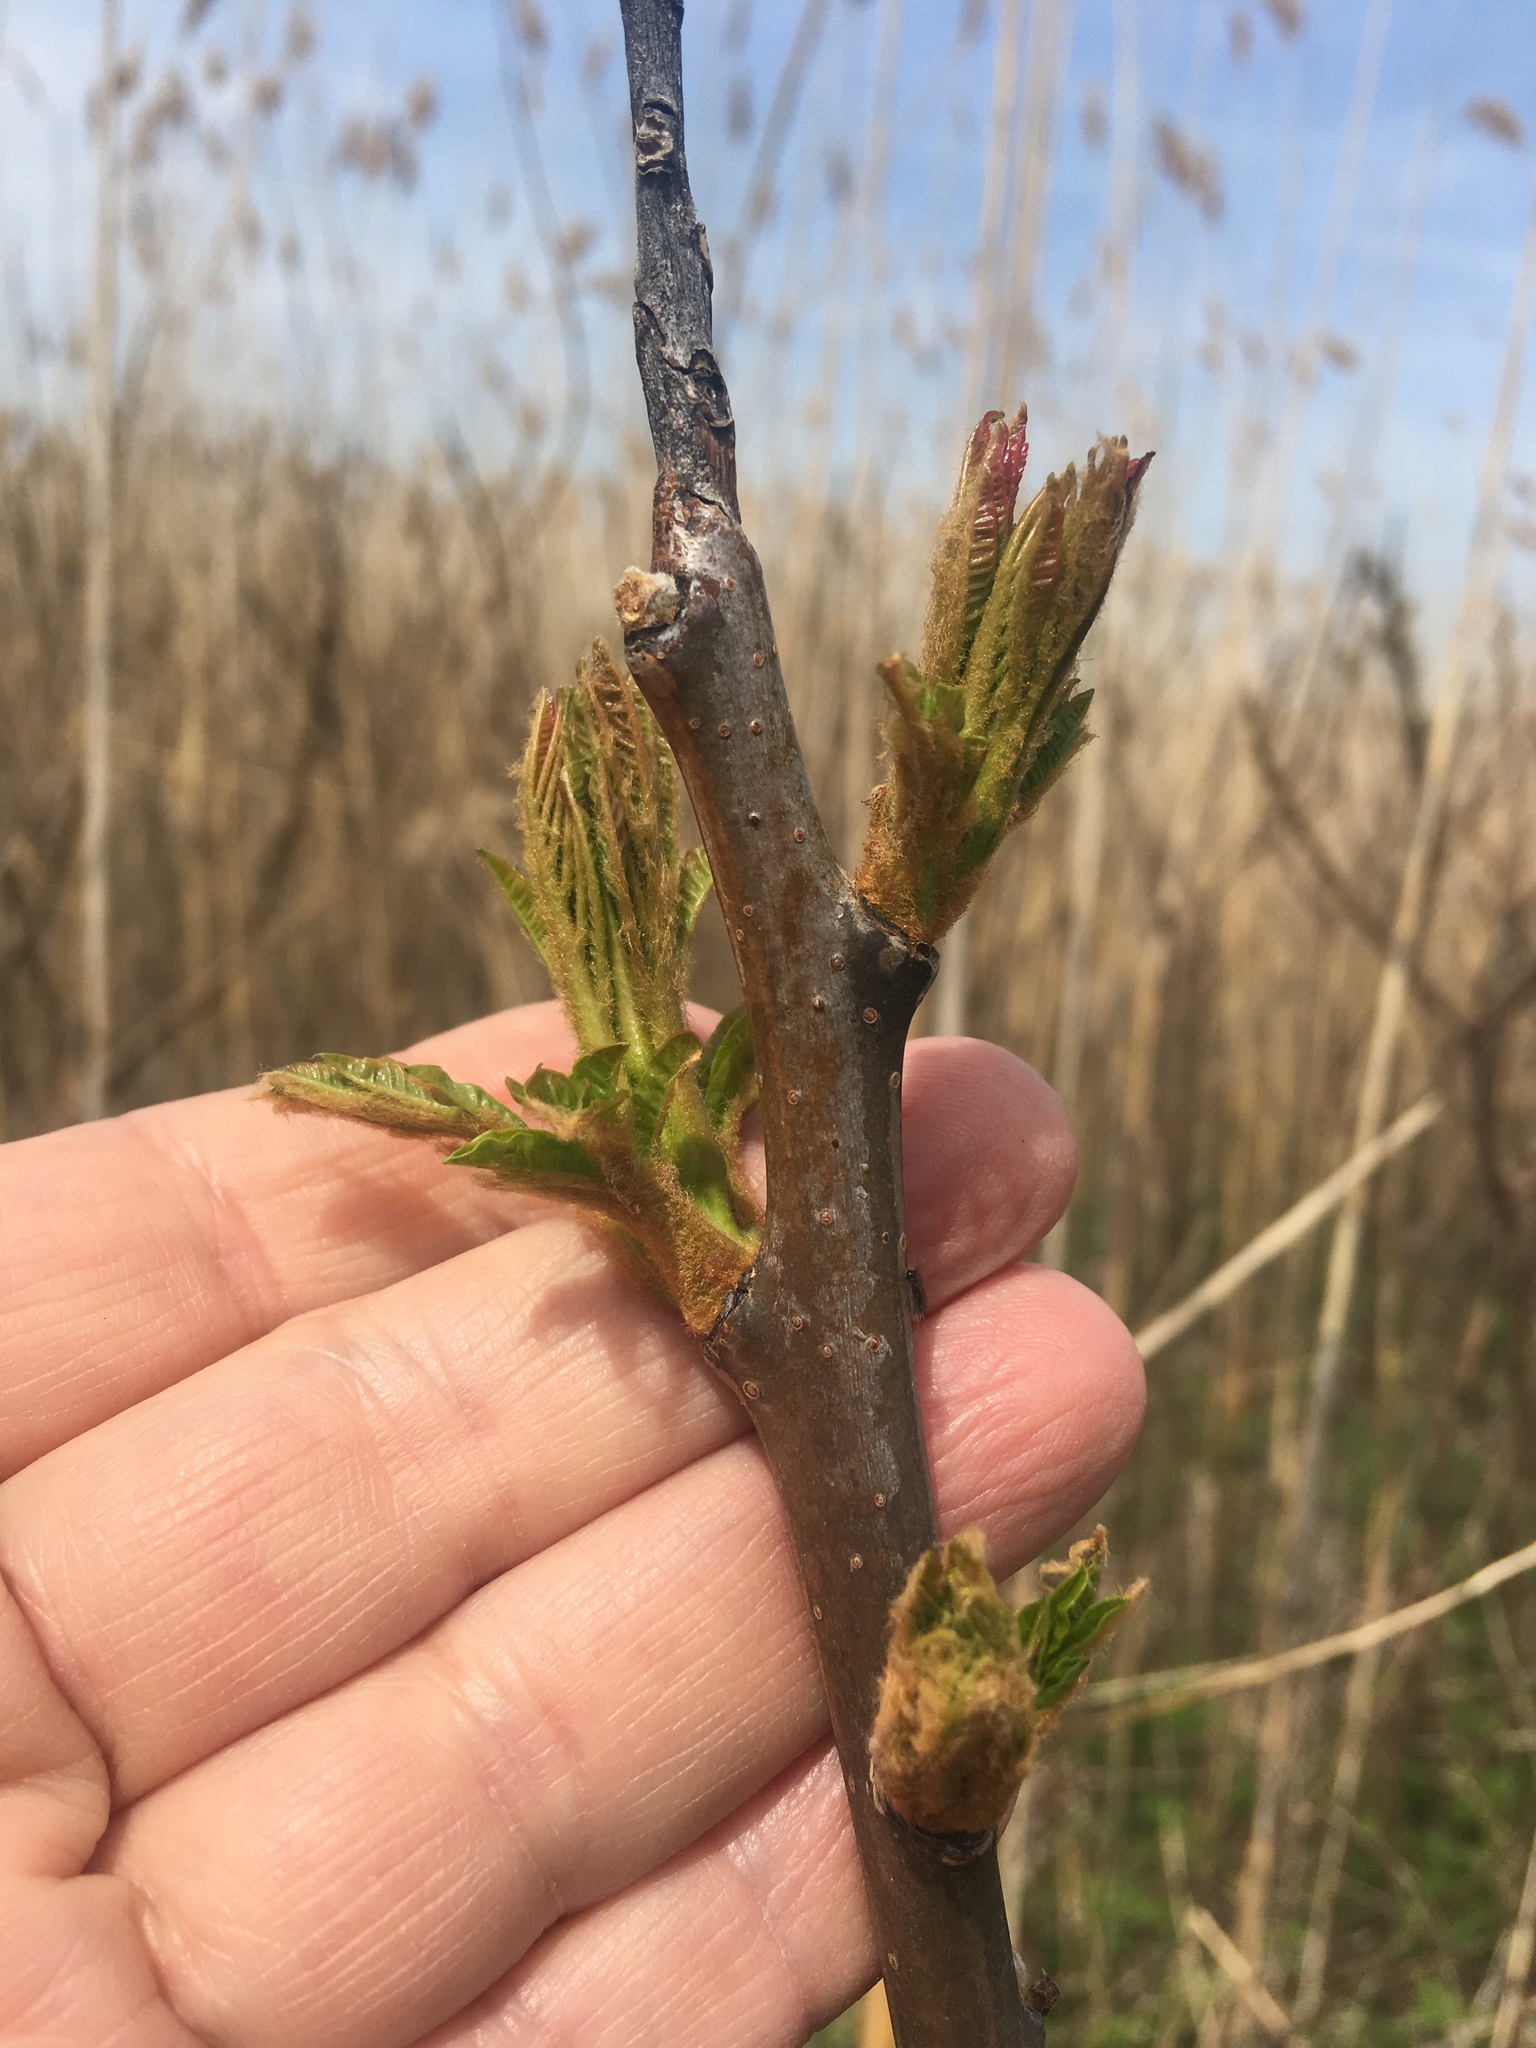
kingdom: Plantae
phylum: Tracheophyta
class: Magnoliopsida
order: Sapindales
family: Anacardiaceae
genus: Rhus
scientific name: Rhus copallina
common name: Shining sumac
